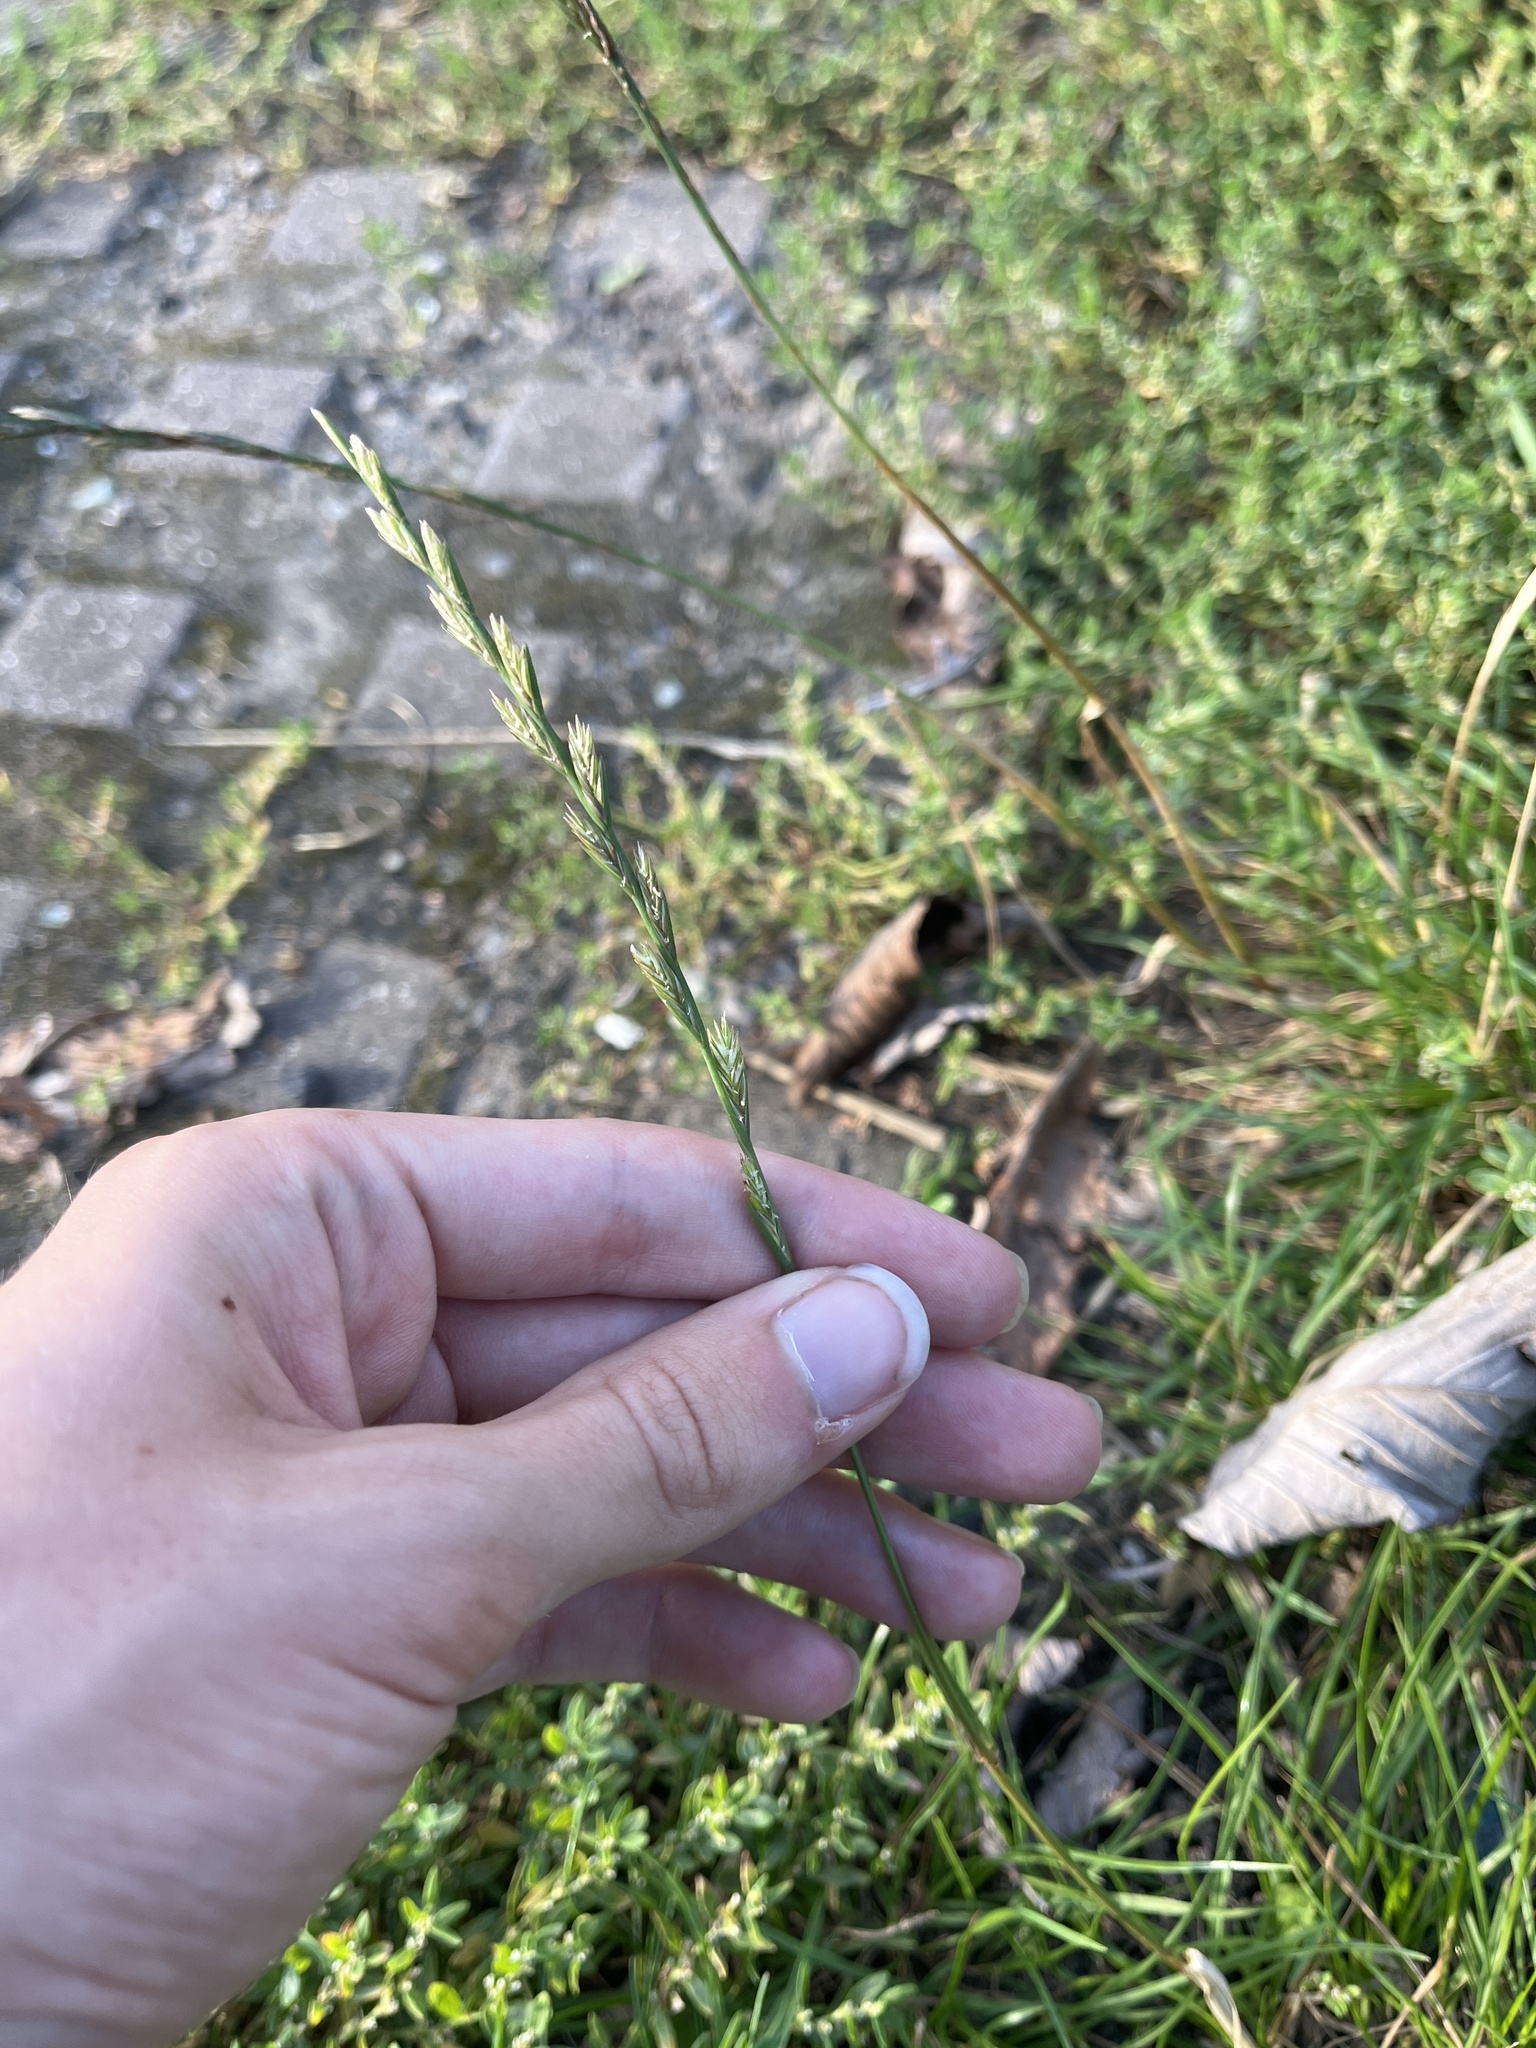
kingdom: Plantae
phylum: Tracheophyta
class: Liliopsida
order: Poales
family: Poaceae
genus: Lolium
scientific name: Lolium perenne
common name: Perennial ryegrass
